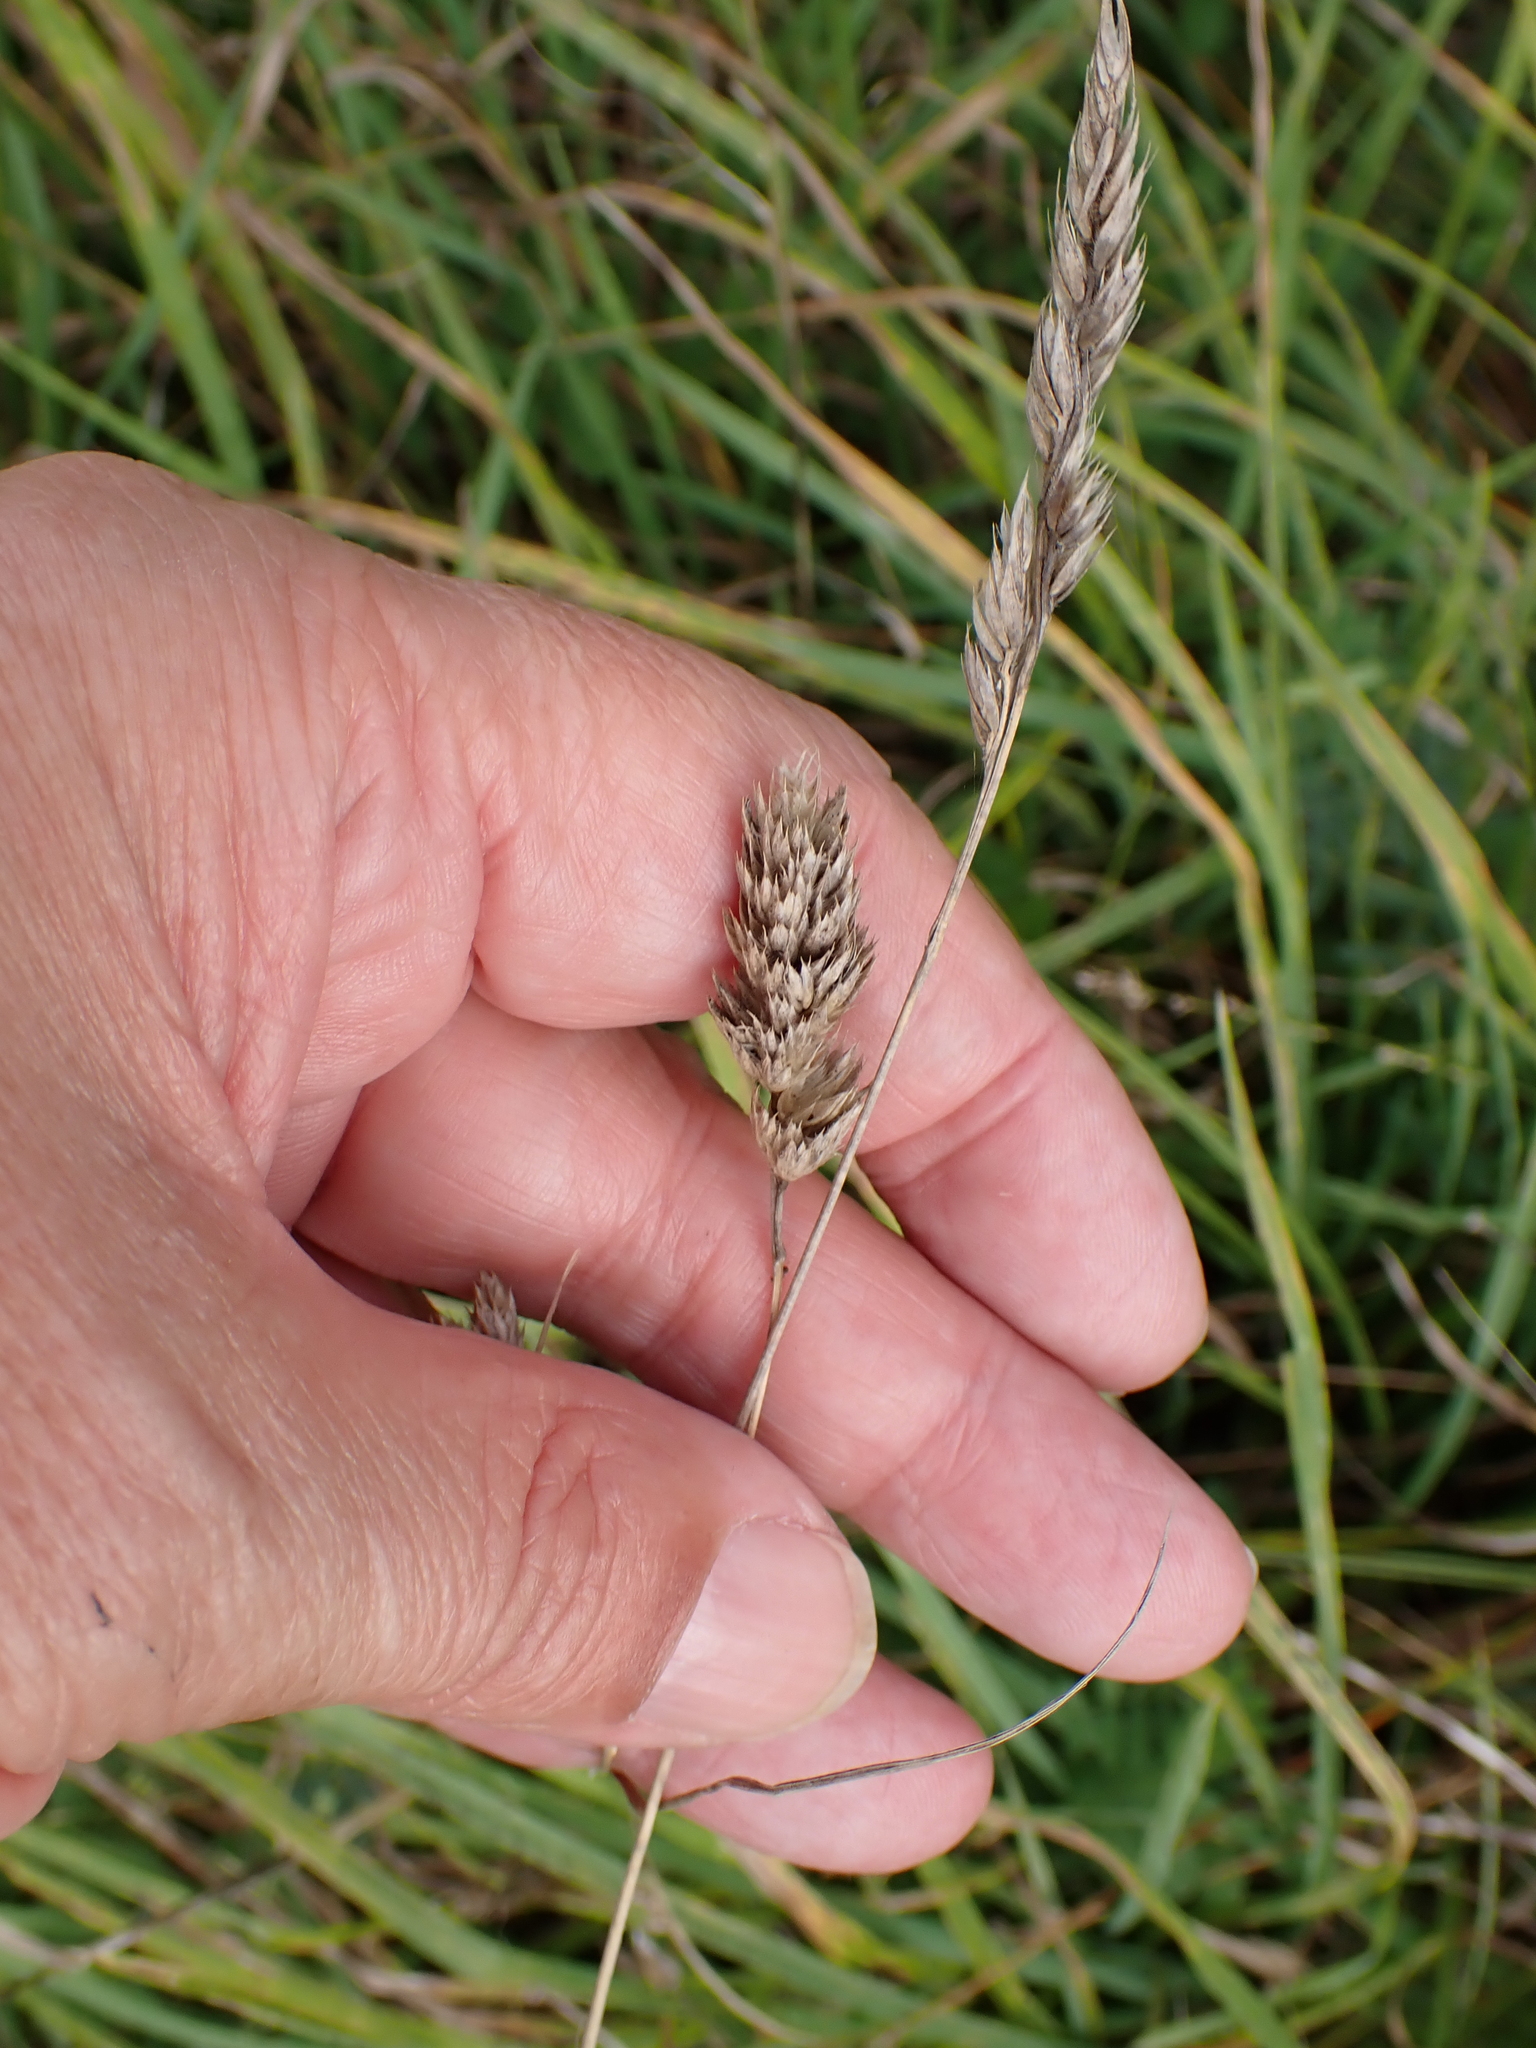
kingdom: Plantae
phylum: Tracheophyta
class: Liliopsida
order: Poales
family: Poaceae
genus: Dactylis
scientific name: Dactylis glomerata
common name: Orchardgrass
